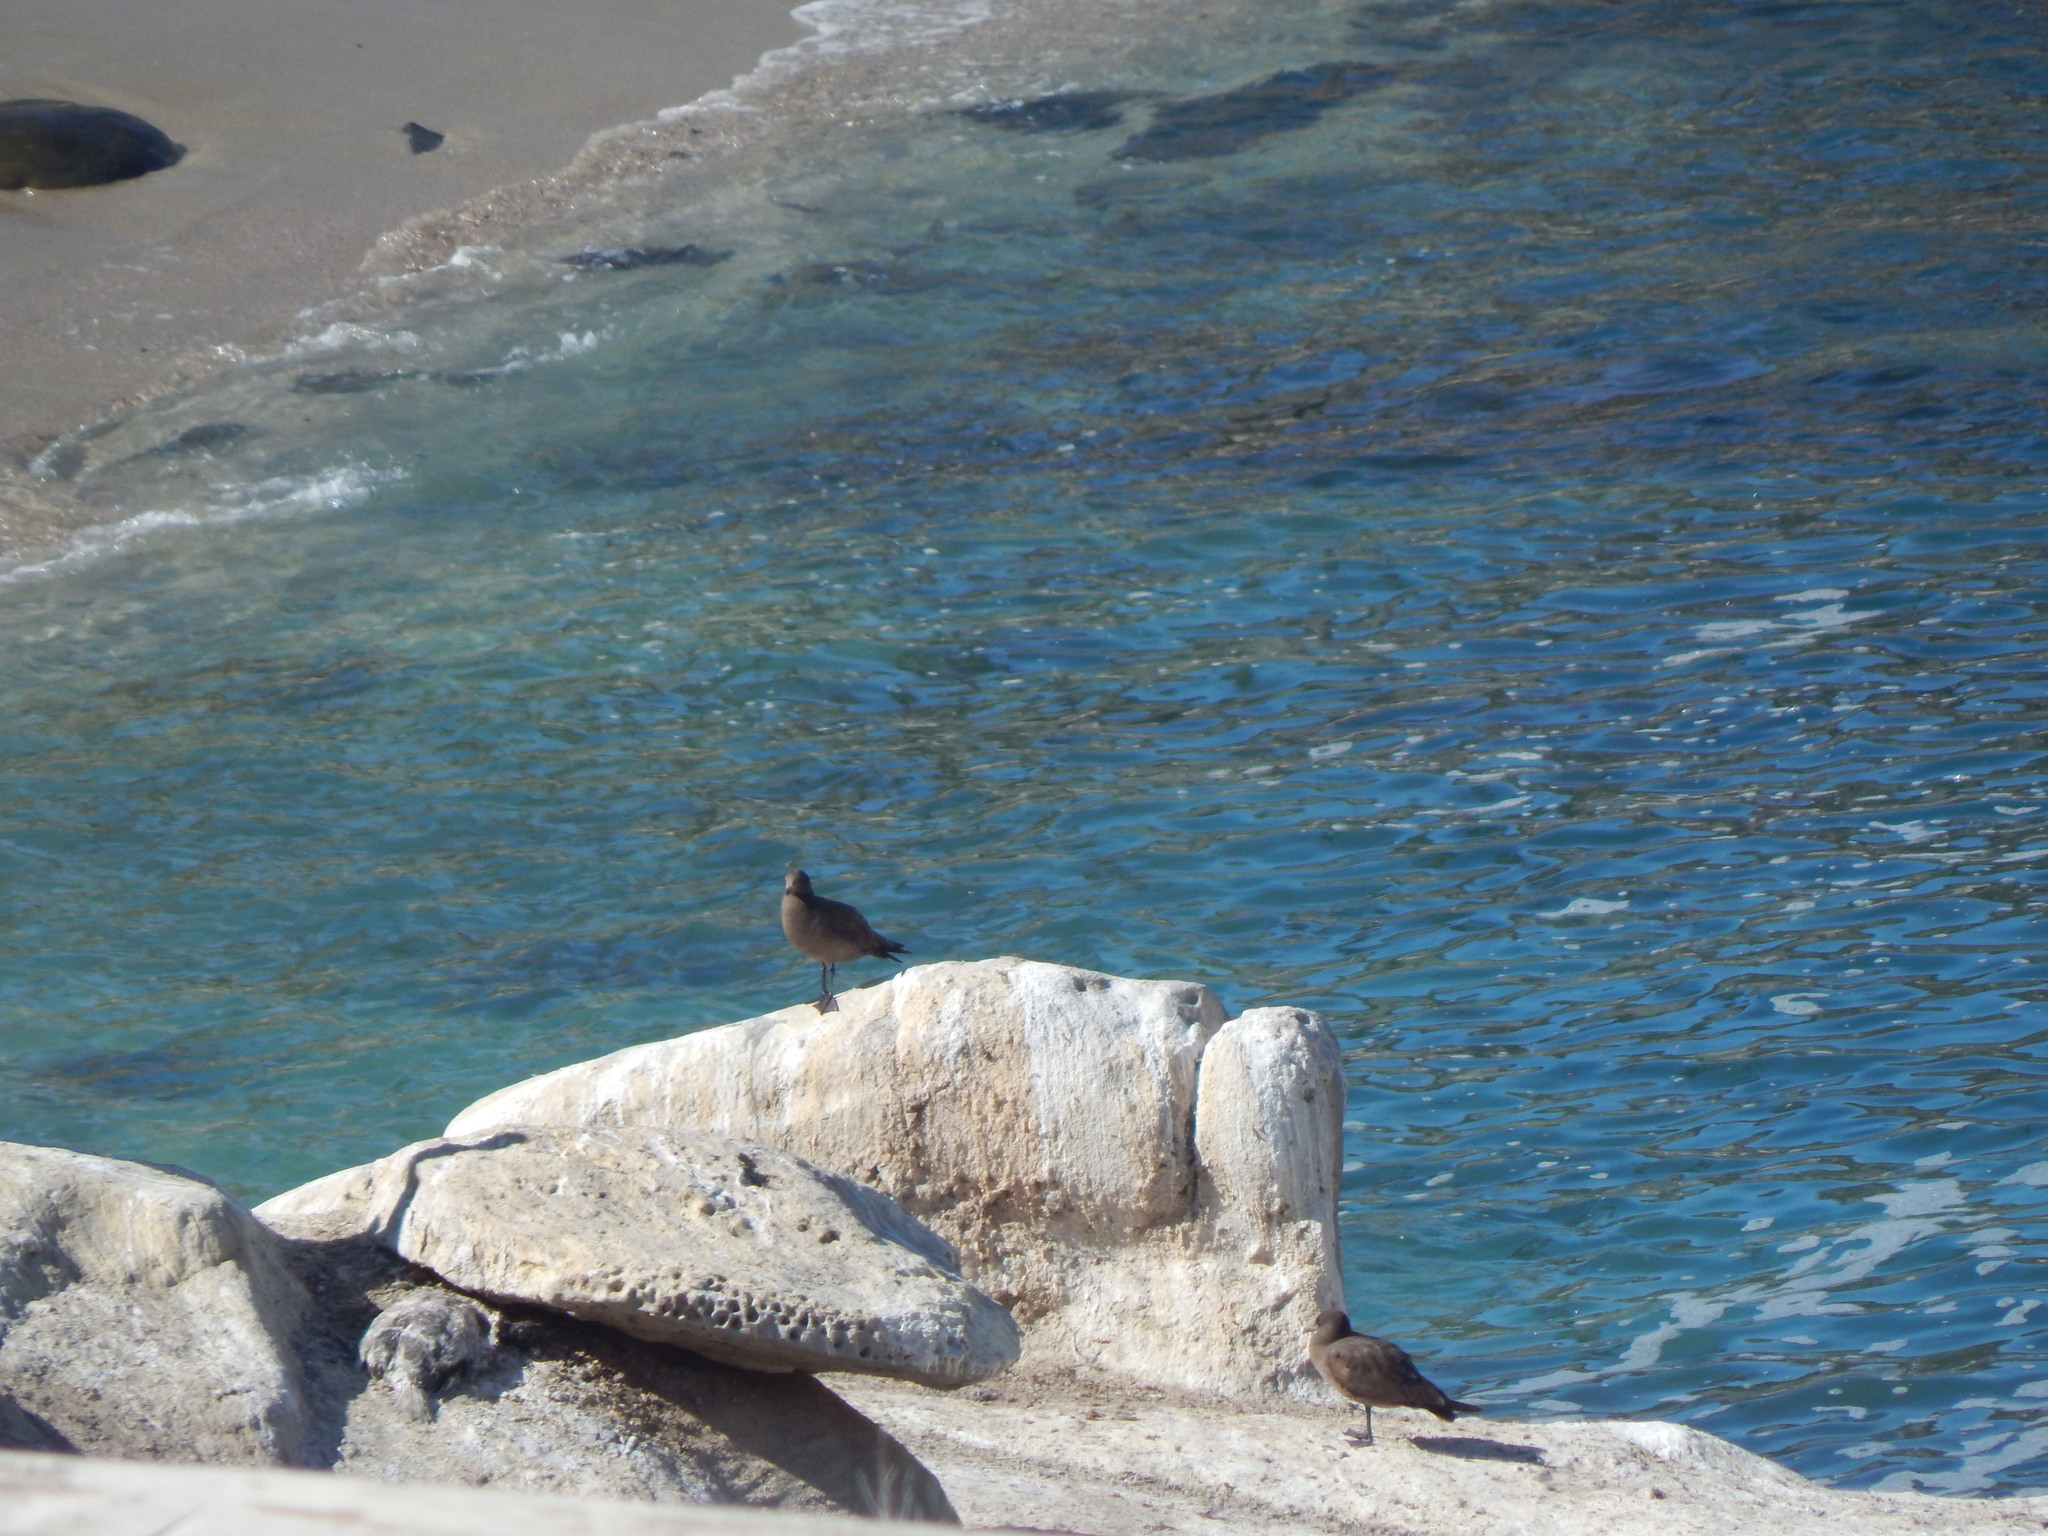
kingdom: Animalia
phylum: Chordata
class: Aves
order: Charadriiformes
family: Laridae
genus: Larus
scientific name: Larus heermanni
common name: Heermann's gull
